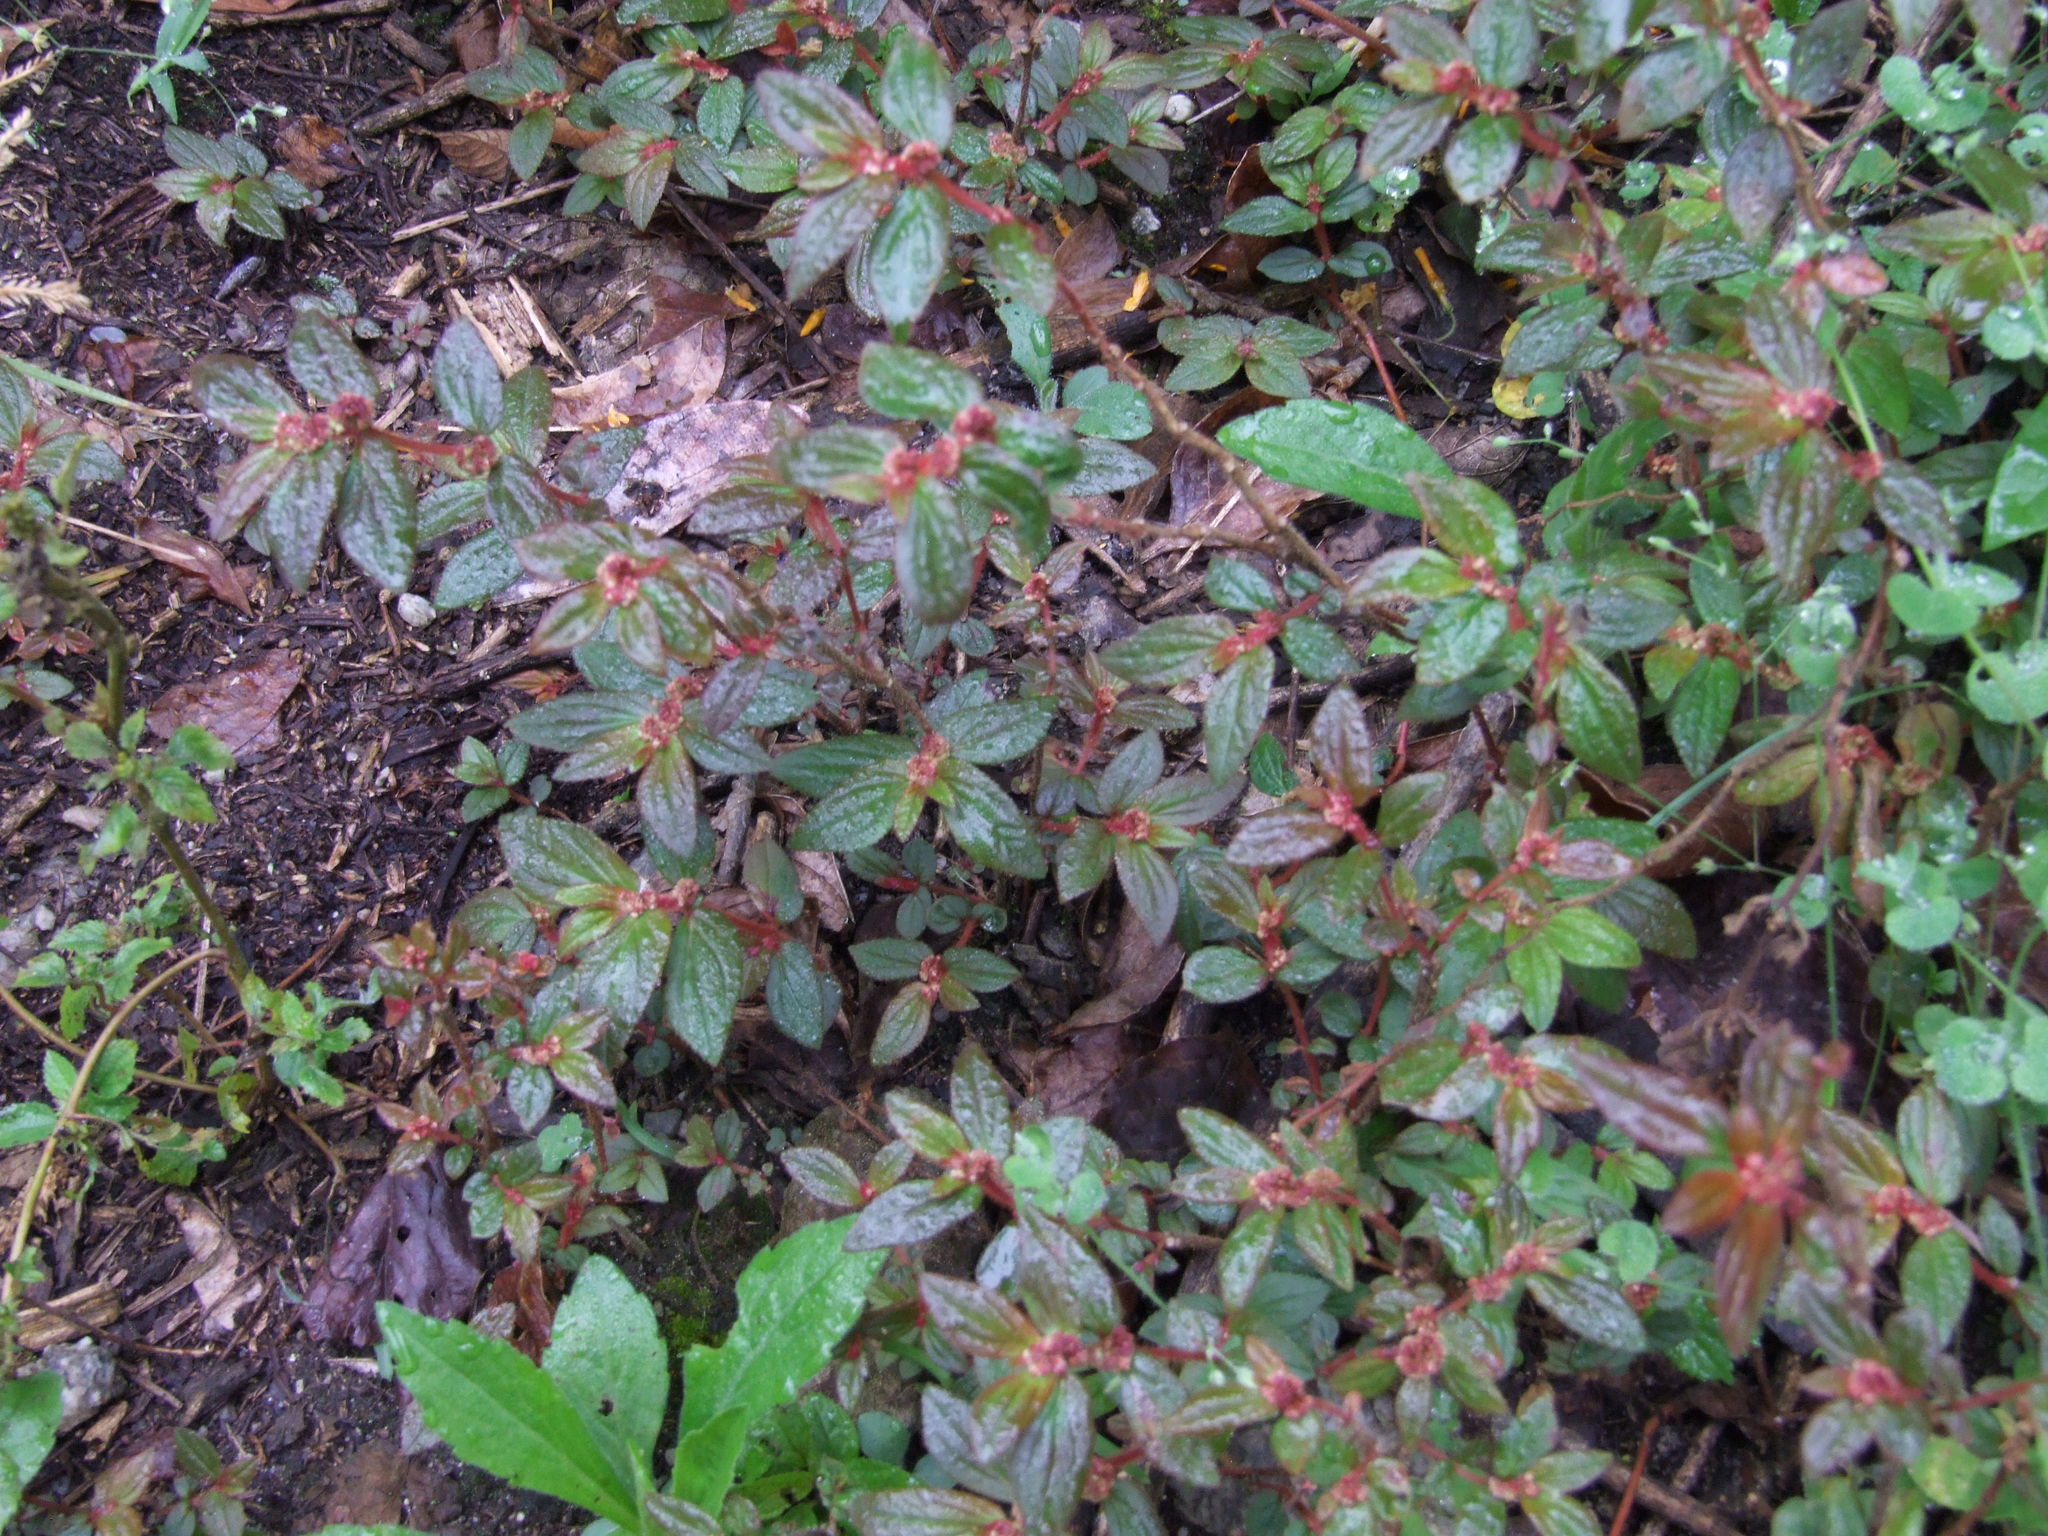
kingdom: Plantae
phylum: Tracheophyta
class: Magnoliopsida
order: Malpighiales
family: Euphorbiaceae
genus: Euphorbia
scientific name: Euphorbia hirta
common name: Pillpod sandmat
